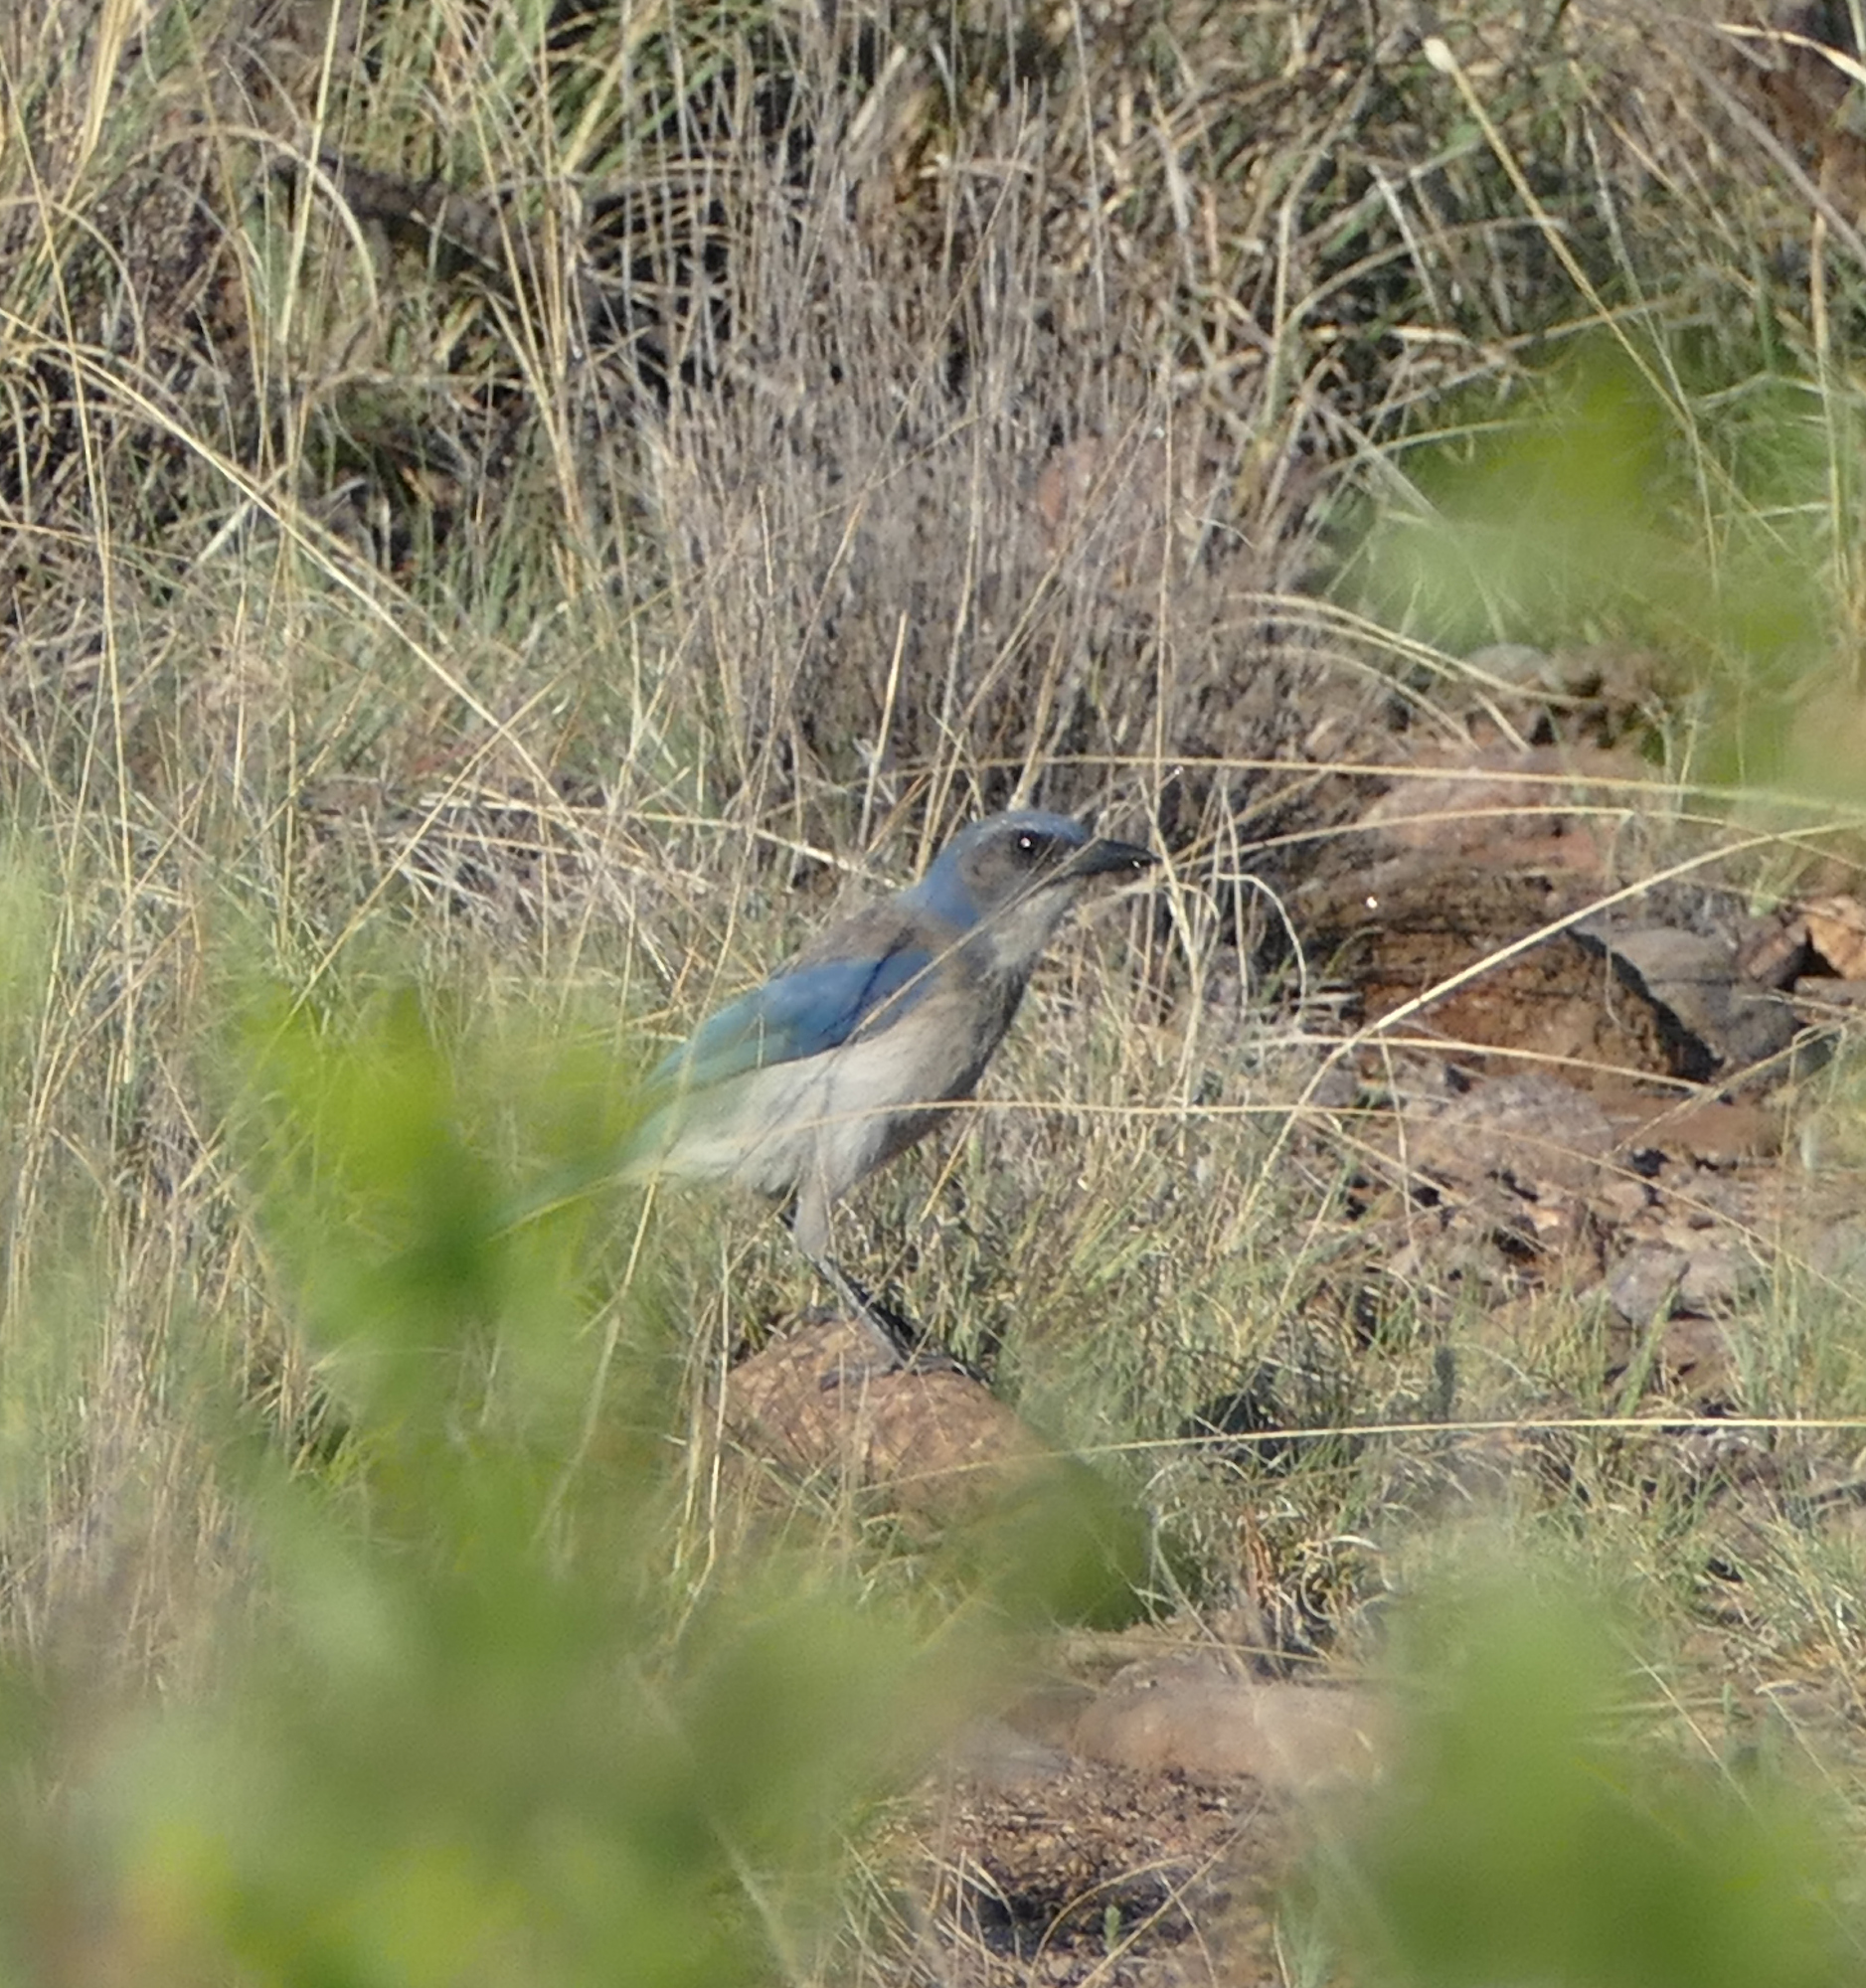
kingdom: Animalia
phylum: Chordata
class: Aves
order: Passeriformes
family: Corvidae
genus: Aphelocoma
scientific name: Aphelocoma woodhouseii
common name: Woodhouse's scrub-jay
